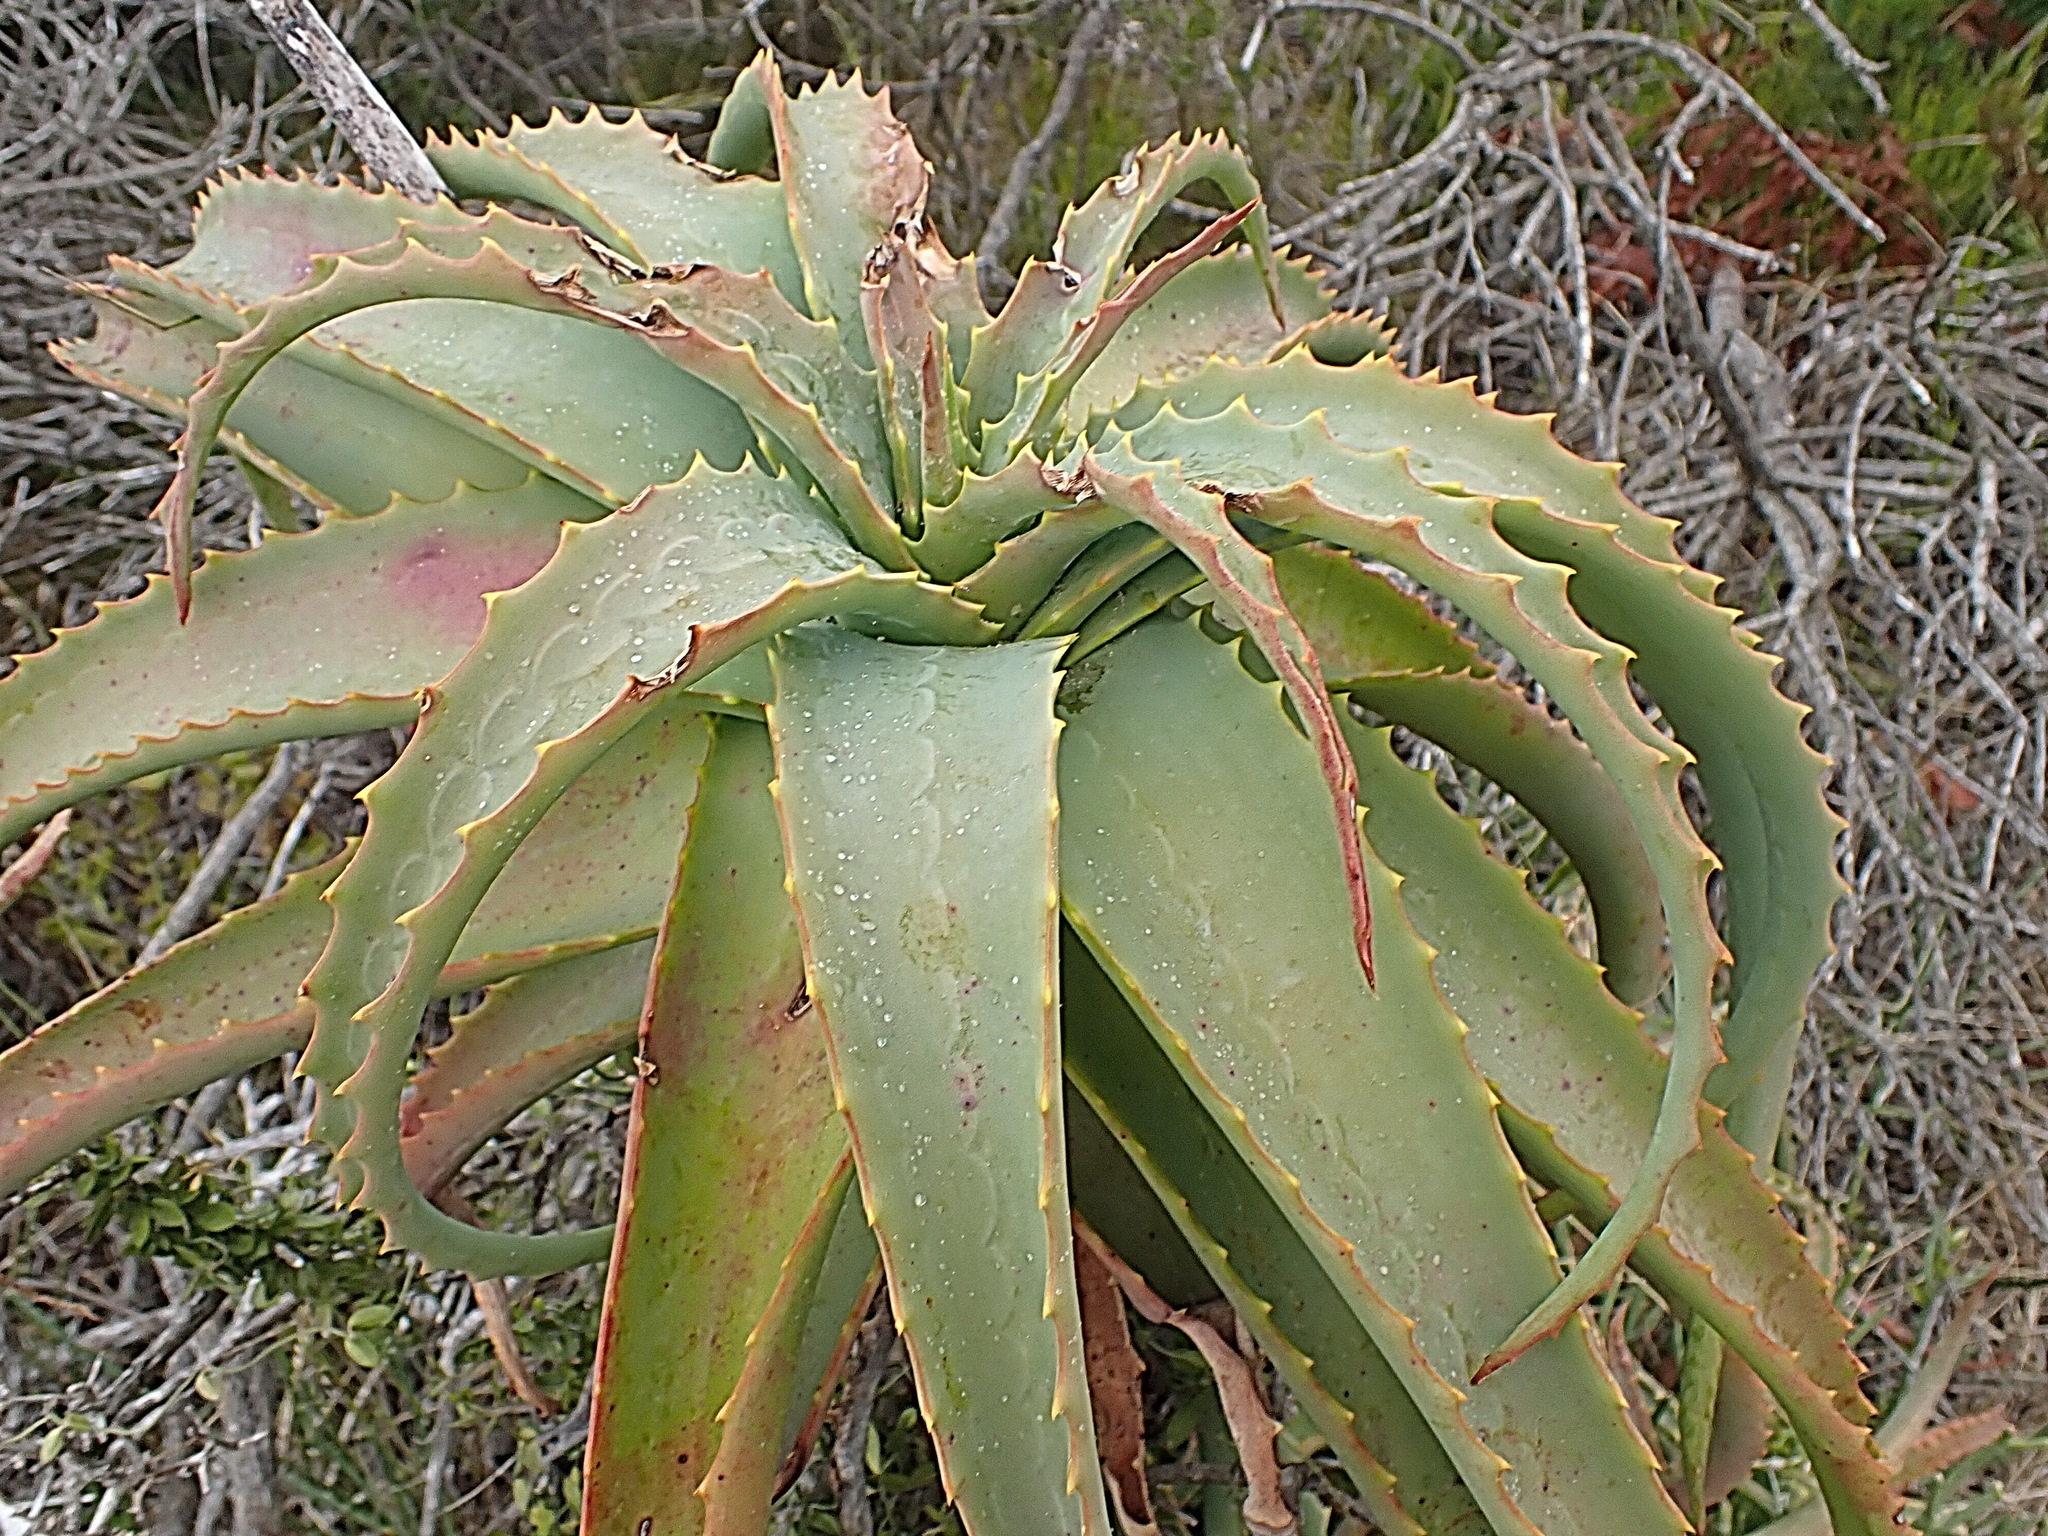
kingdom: Plantae
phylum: Tracheophyta
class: Liliopsida
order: Asparagales
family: Asphodelaceae
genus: Aloe
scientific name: Aloe arborescens
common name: Candelabra aloe
